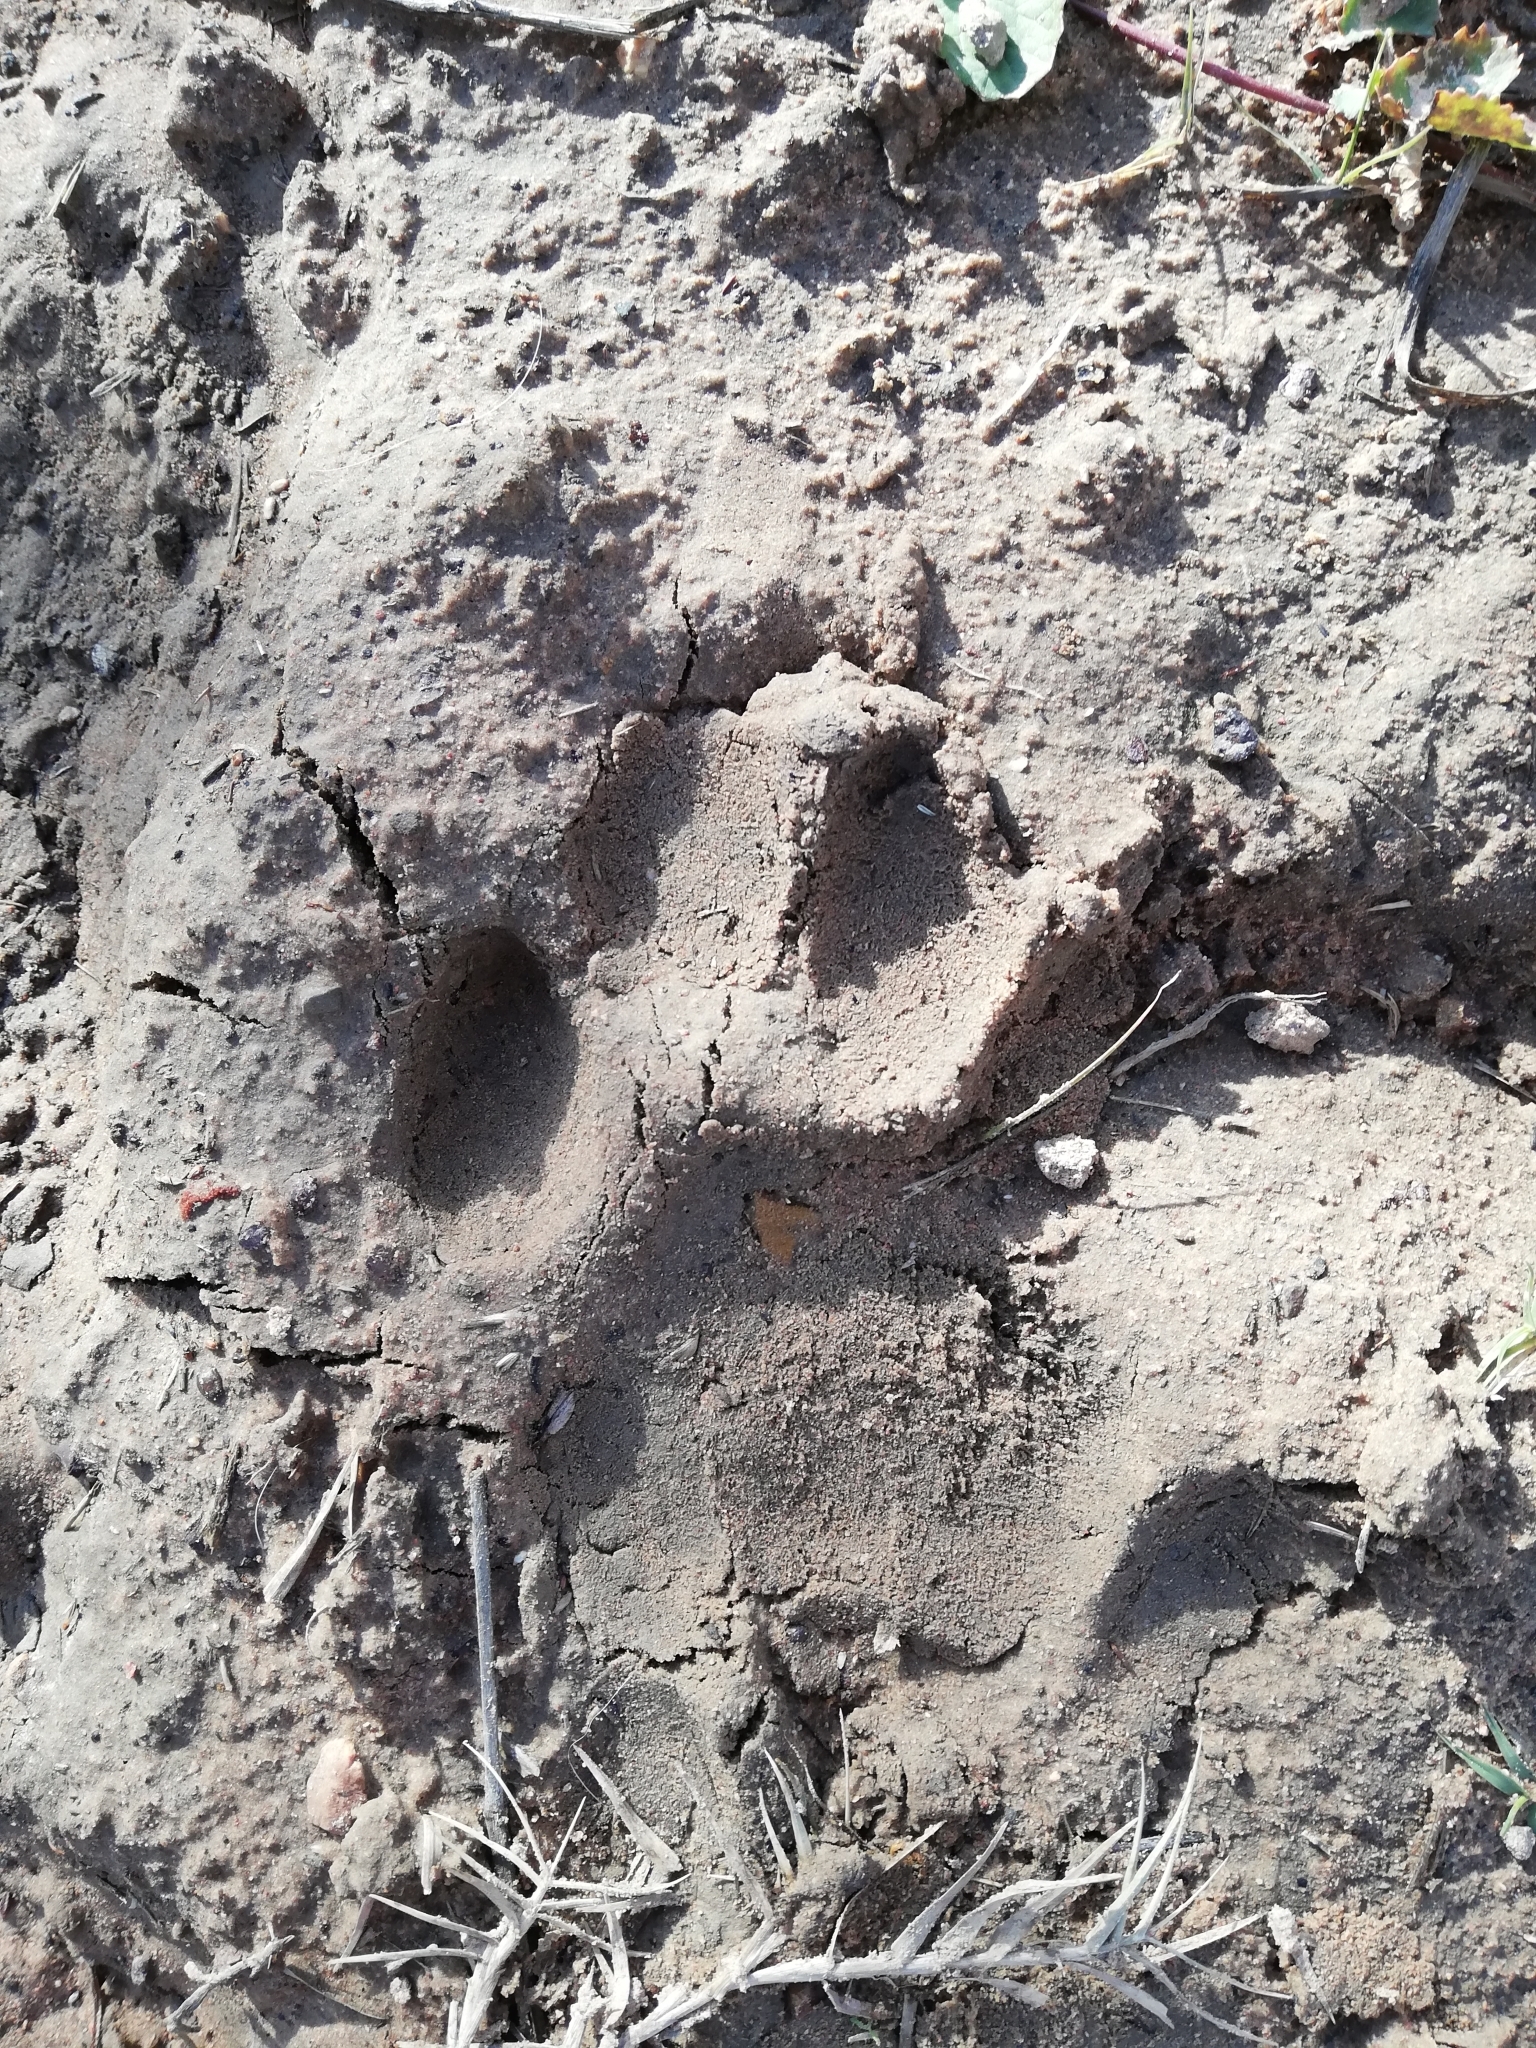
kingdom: Animalia
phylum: Chordata
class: Mammalia
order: Carnivora
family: Felidae
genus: Panthera
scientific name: Panthera pardus
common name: Leopard
